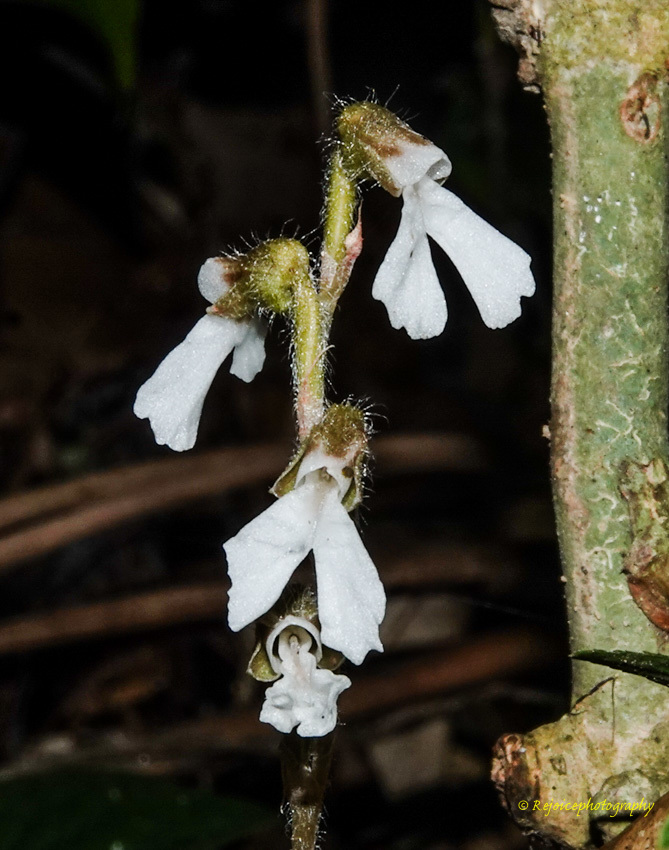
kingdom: Plantae
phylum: Tracheophyta
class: Liliopsida
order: Asparagales
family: Orchidaceae
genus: Zeuxine
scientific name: Zeuxine longilabris
